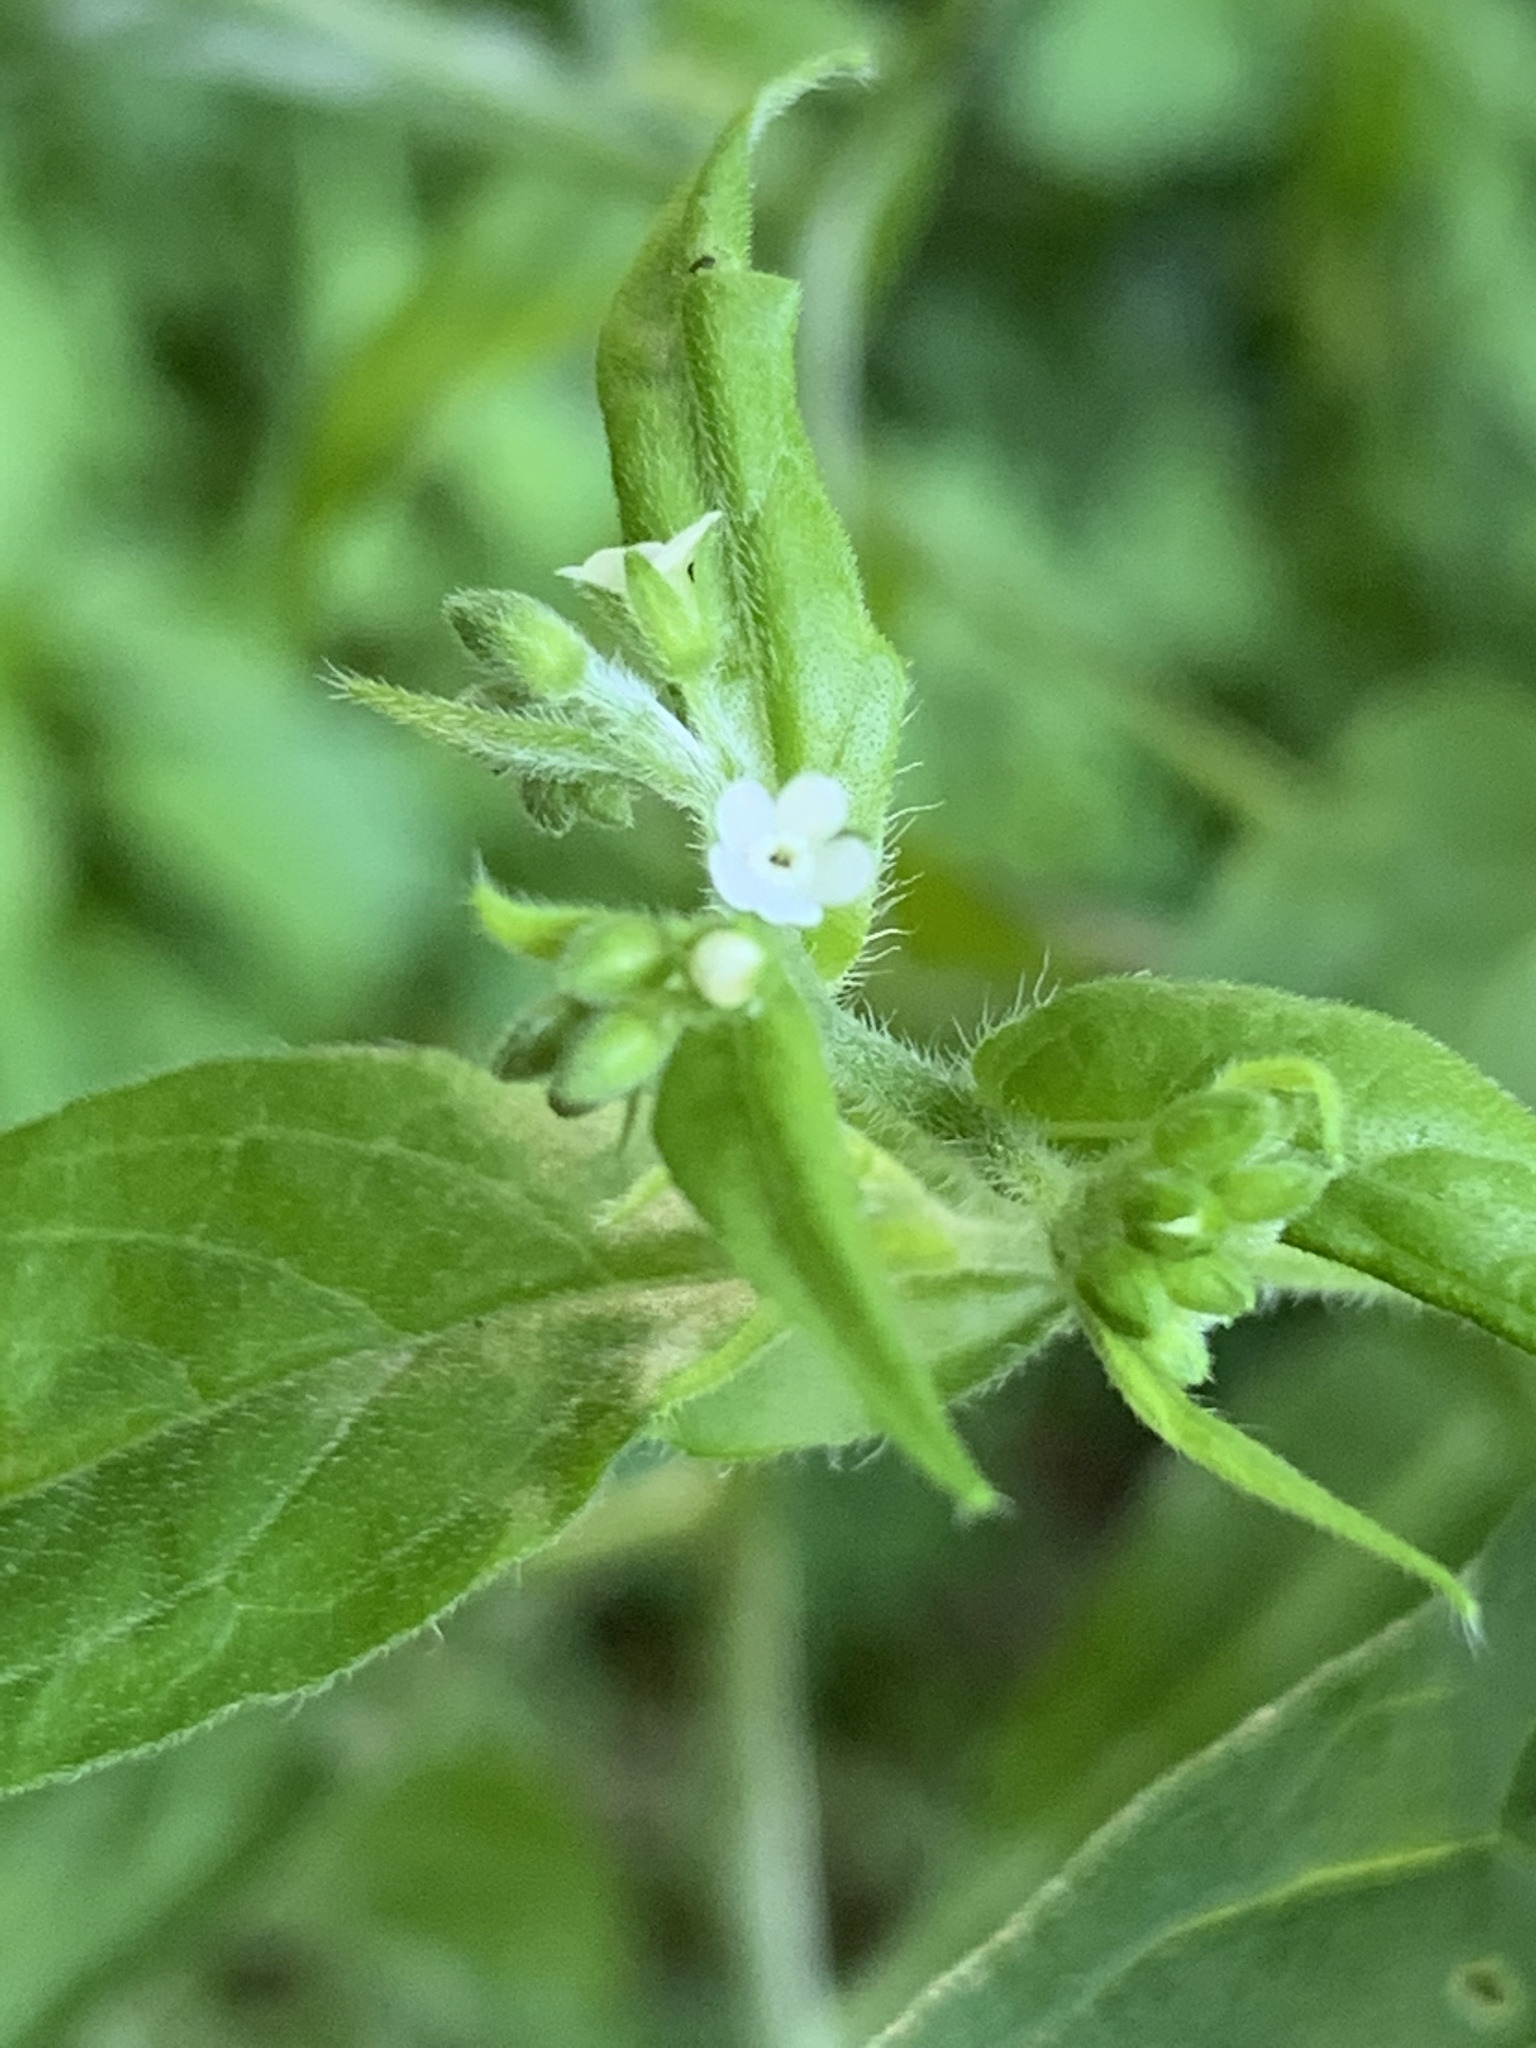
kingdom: Plantae
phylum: Tracheophyta
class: Magnoliopsida
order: Boraginales
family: Boraginaceae
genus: Hackelia
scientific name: Hackelia virginiana
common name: Beggar's-lice
